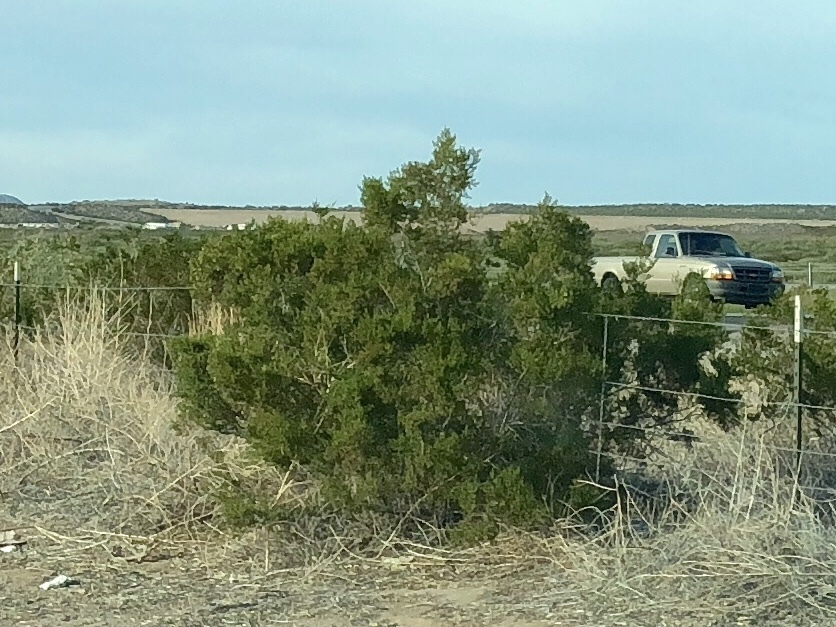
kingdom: Plantae
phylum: Tracheophyta
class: Magnoliopsida
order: Zygophyllales
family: Zygophyllaceae
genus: Larrea
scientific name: Larrea tridentata
